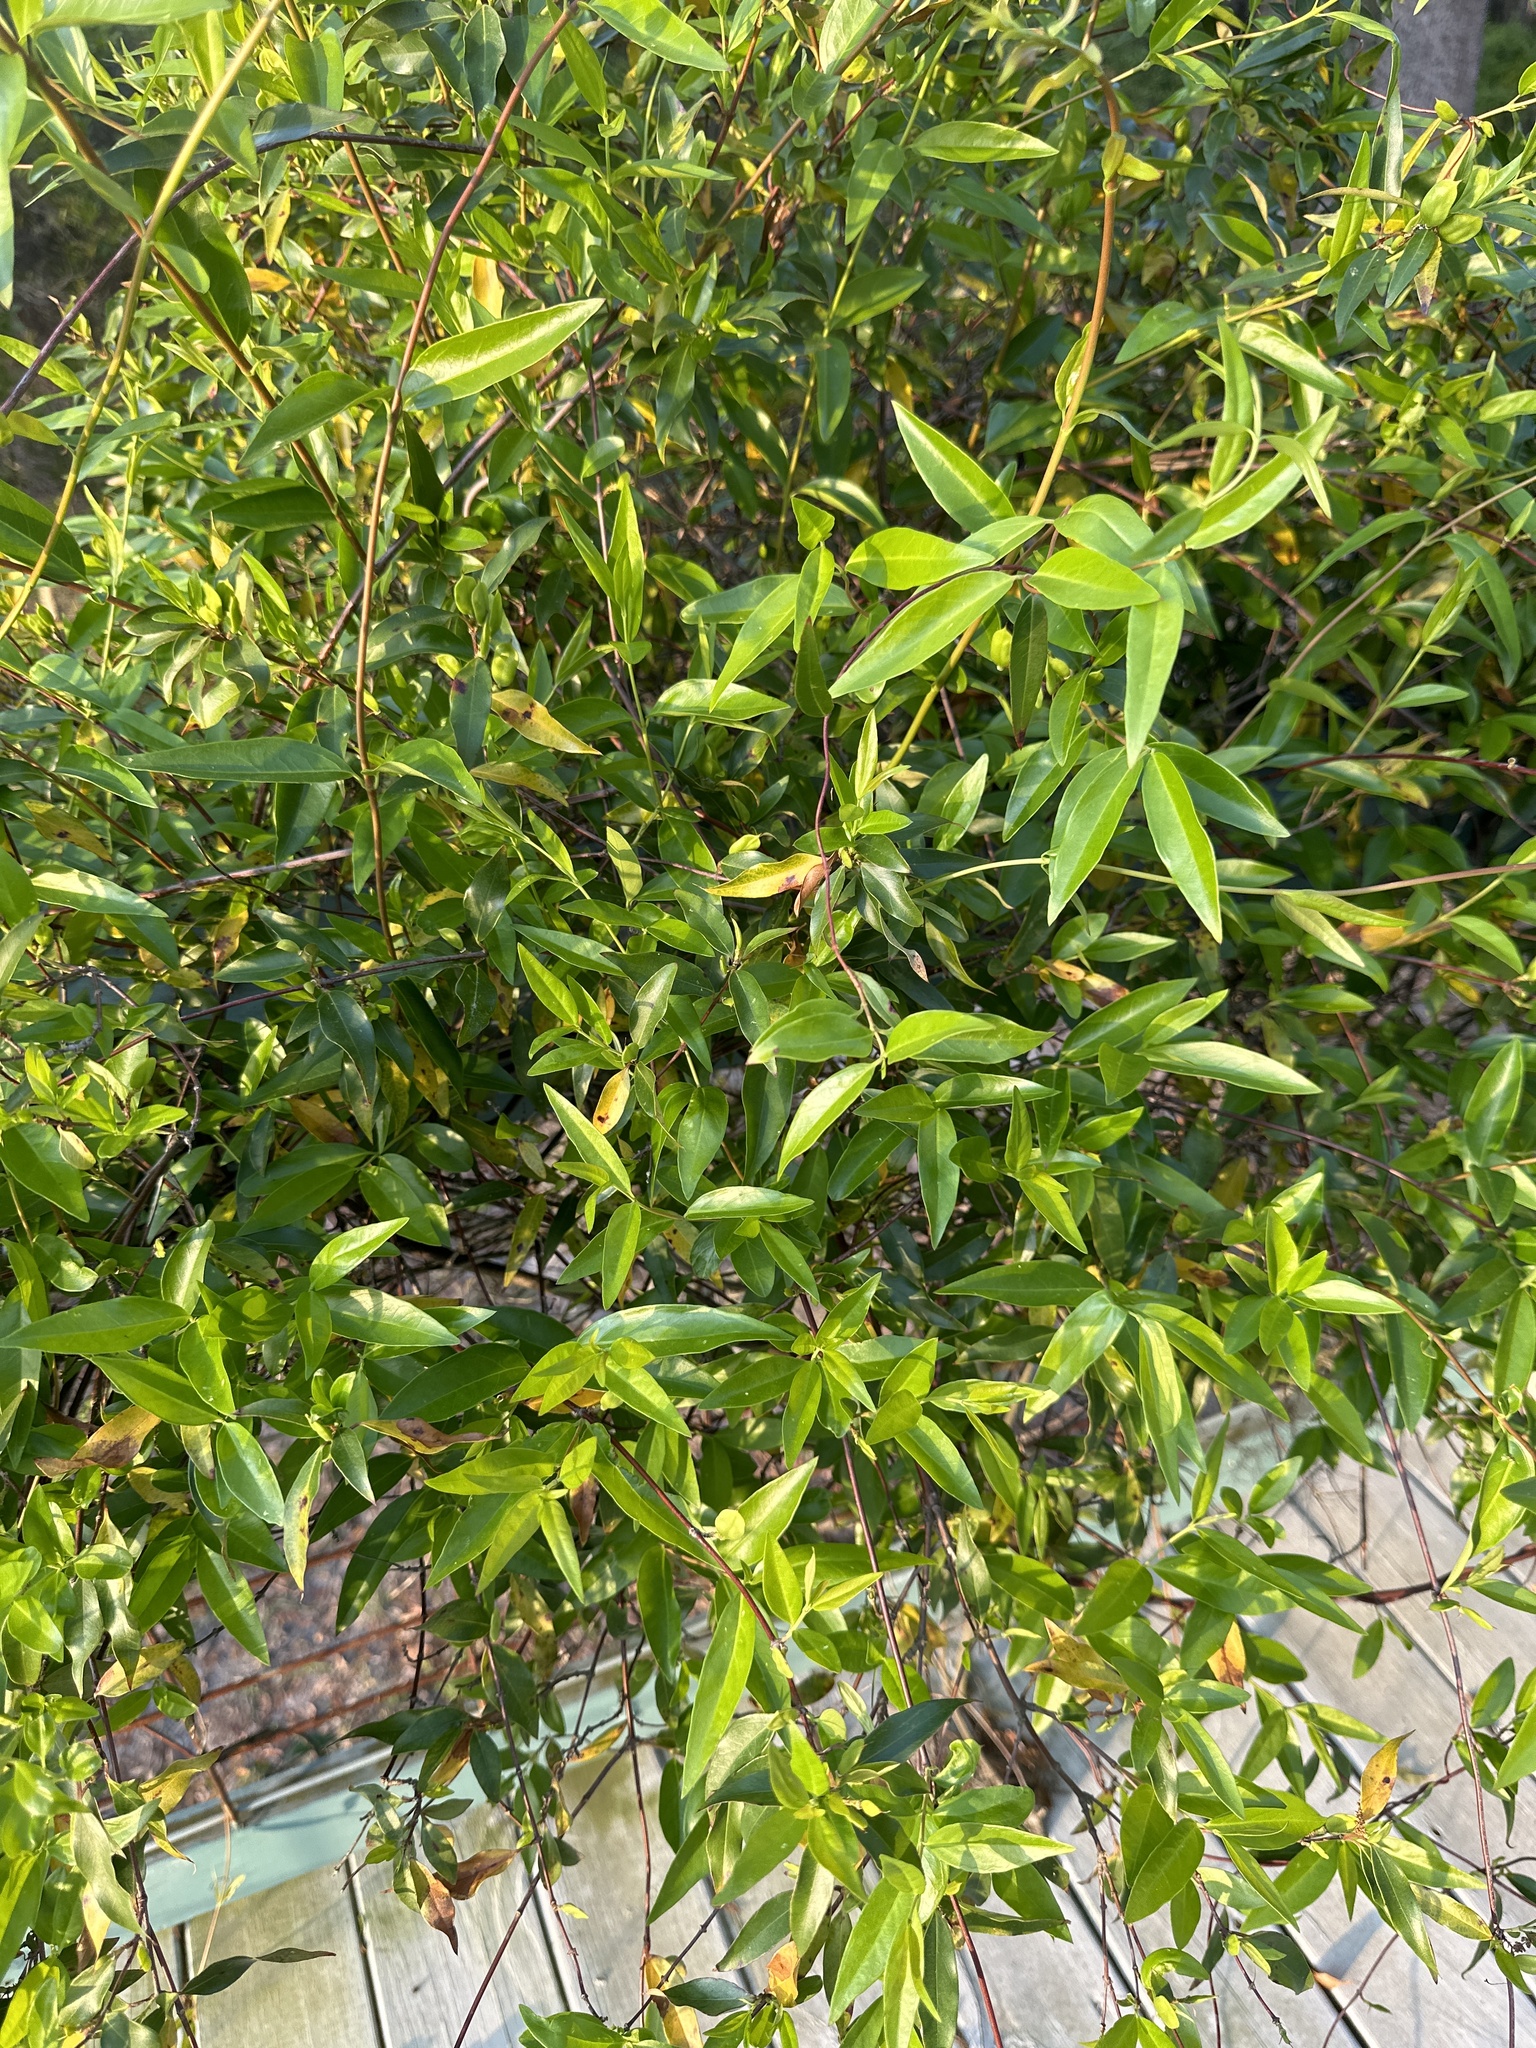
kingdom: Plantae
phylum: Tracheophyta
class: Magnoliopsida
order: Gentianales
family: Gelsemiaceae
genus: Gelsemium
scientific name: Gelsemium sempervirens
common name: Carolina-jasmine
